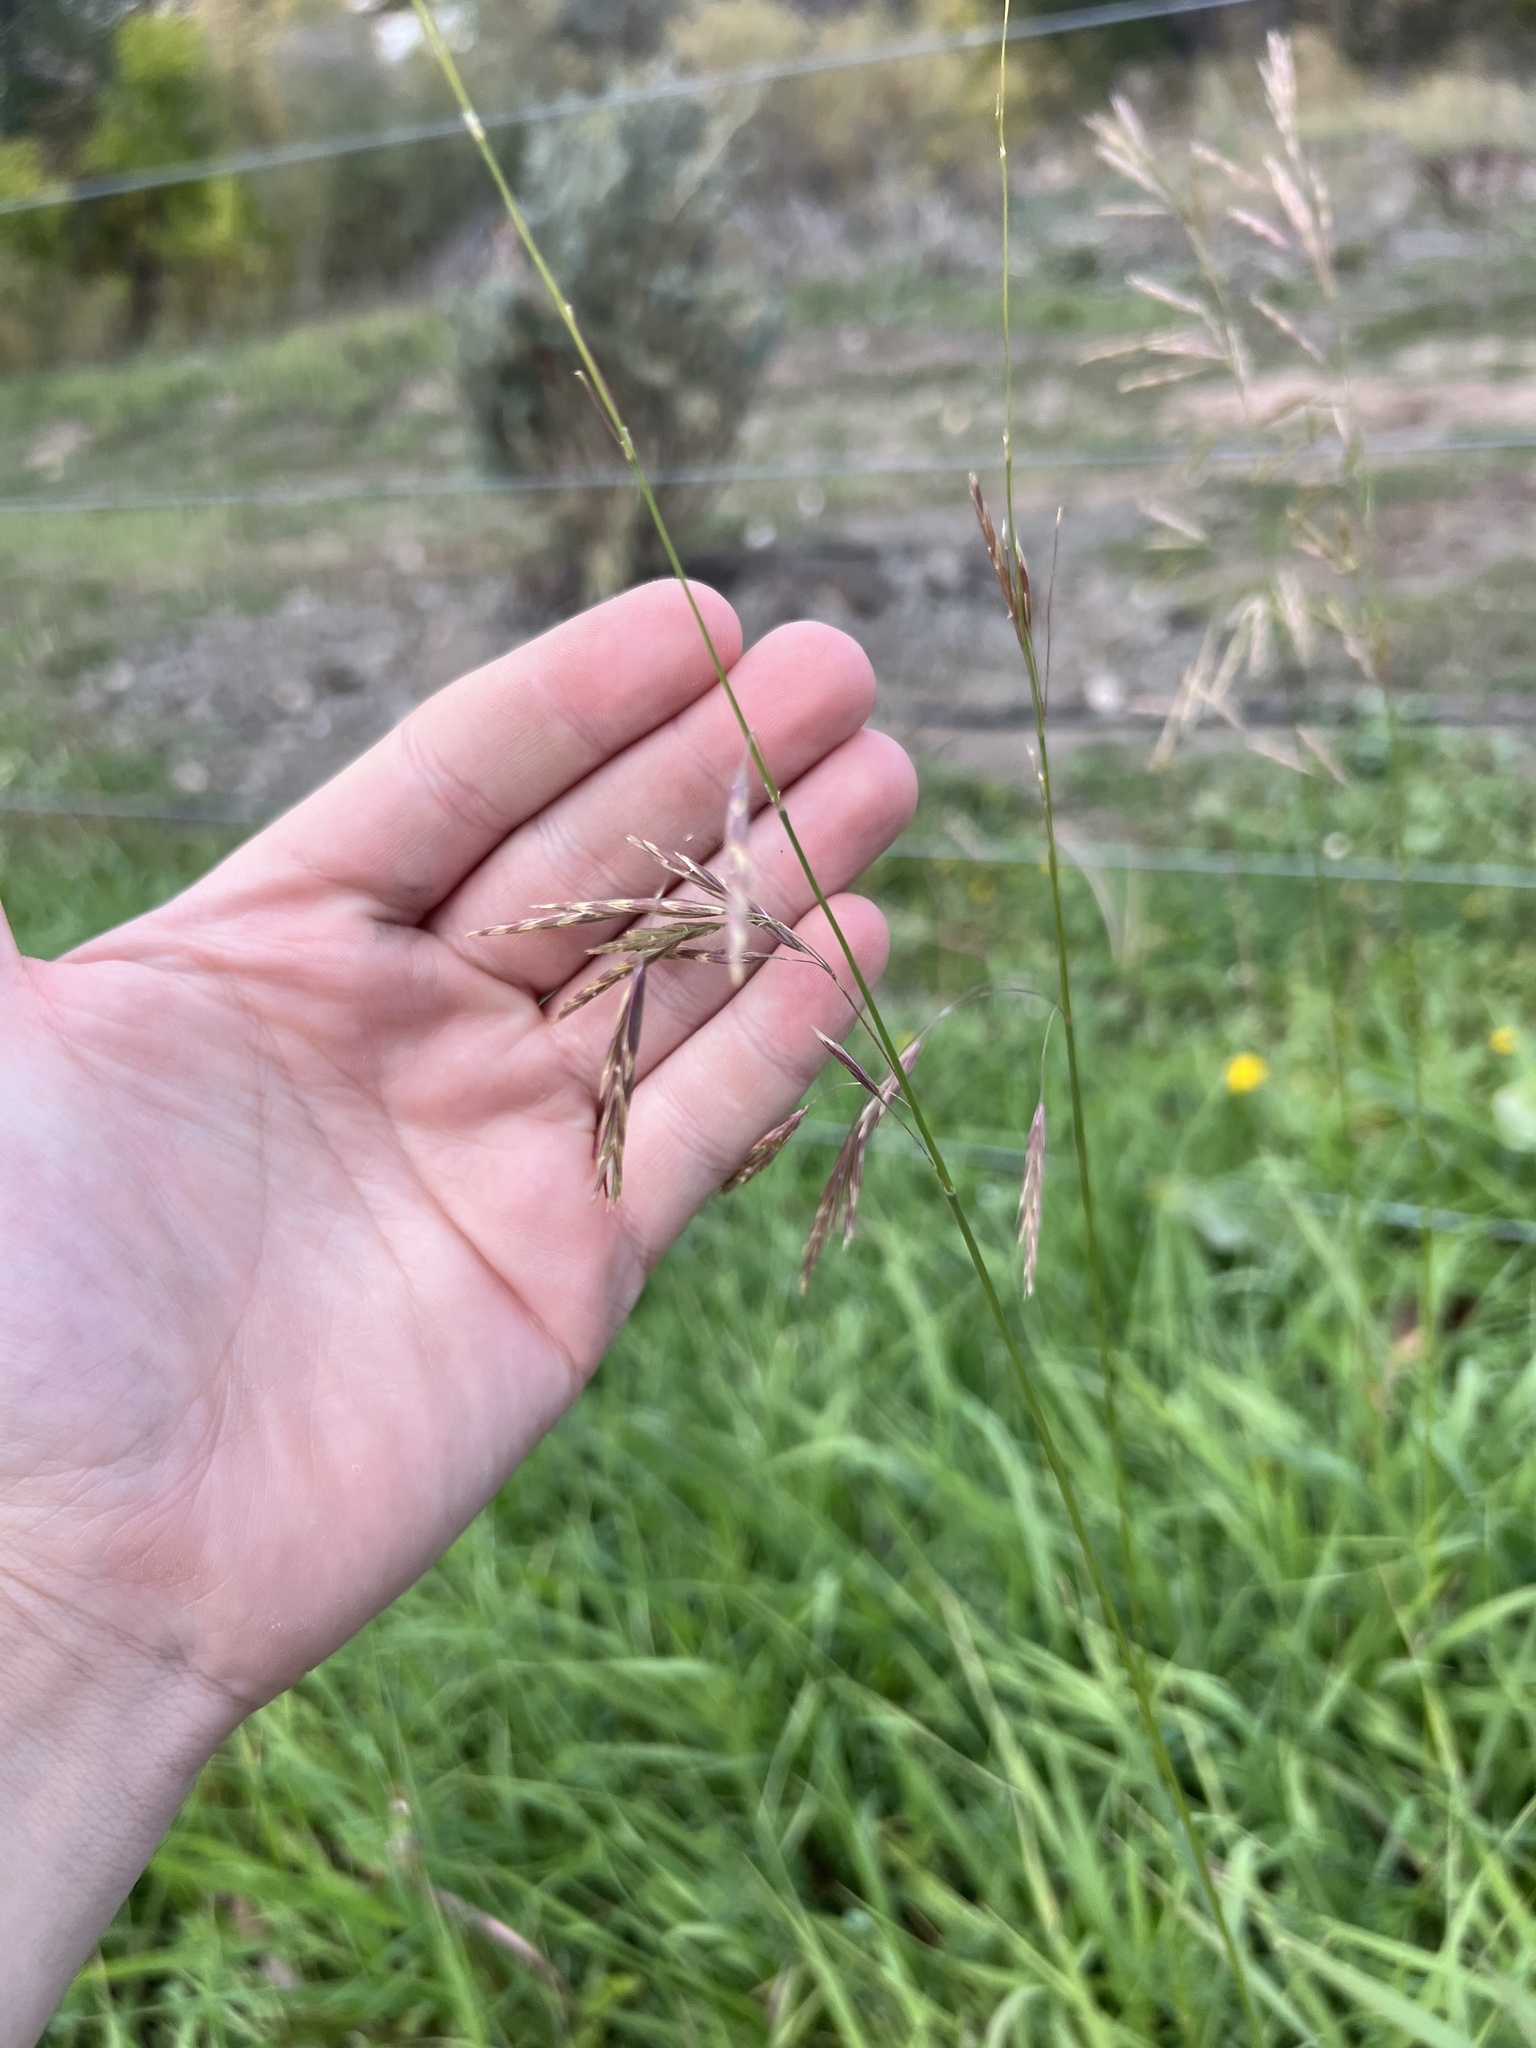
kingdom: Plantae
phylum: Tracheophyta
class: Liliopsida
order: Poales
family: Poaceae
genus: Bromus
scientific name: Bromus inermis
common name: Smooth brome
